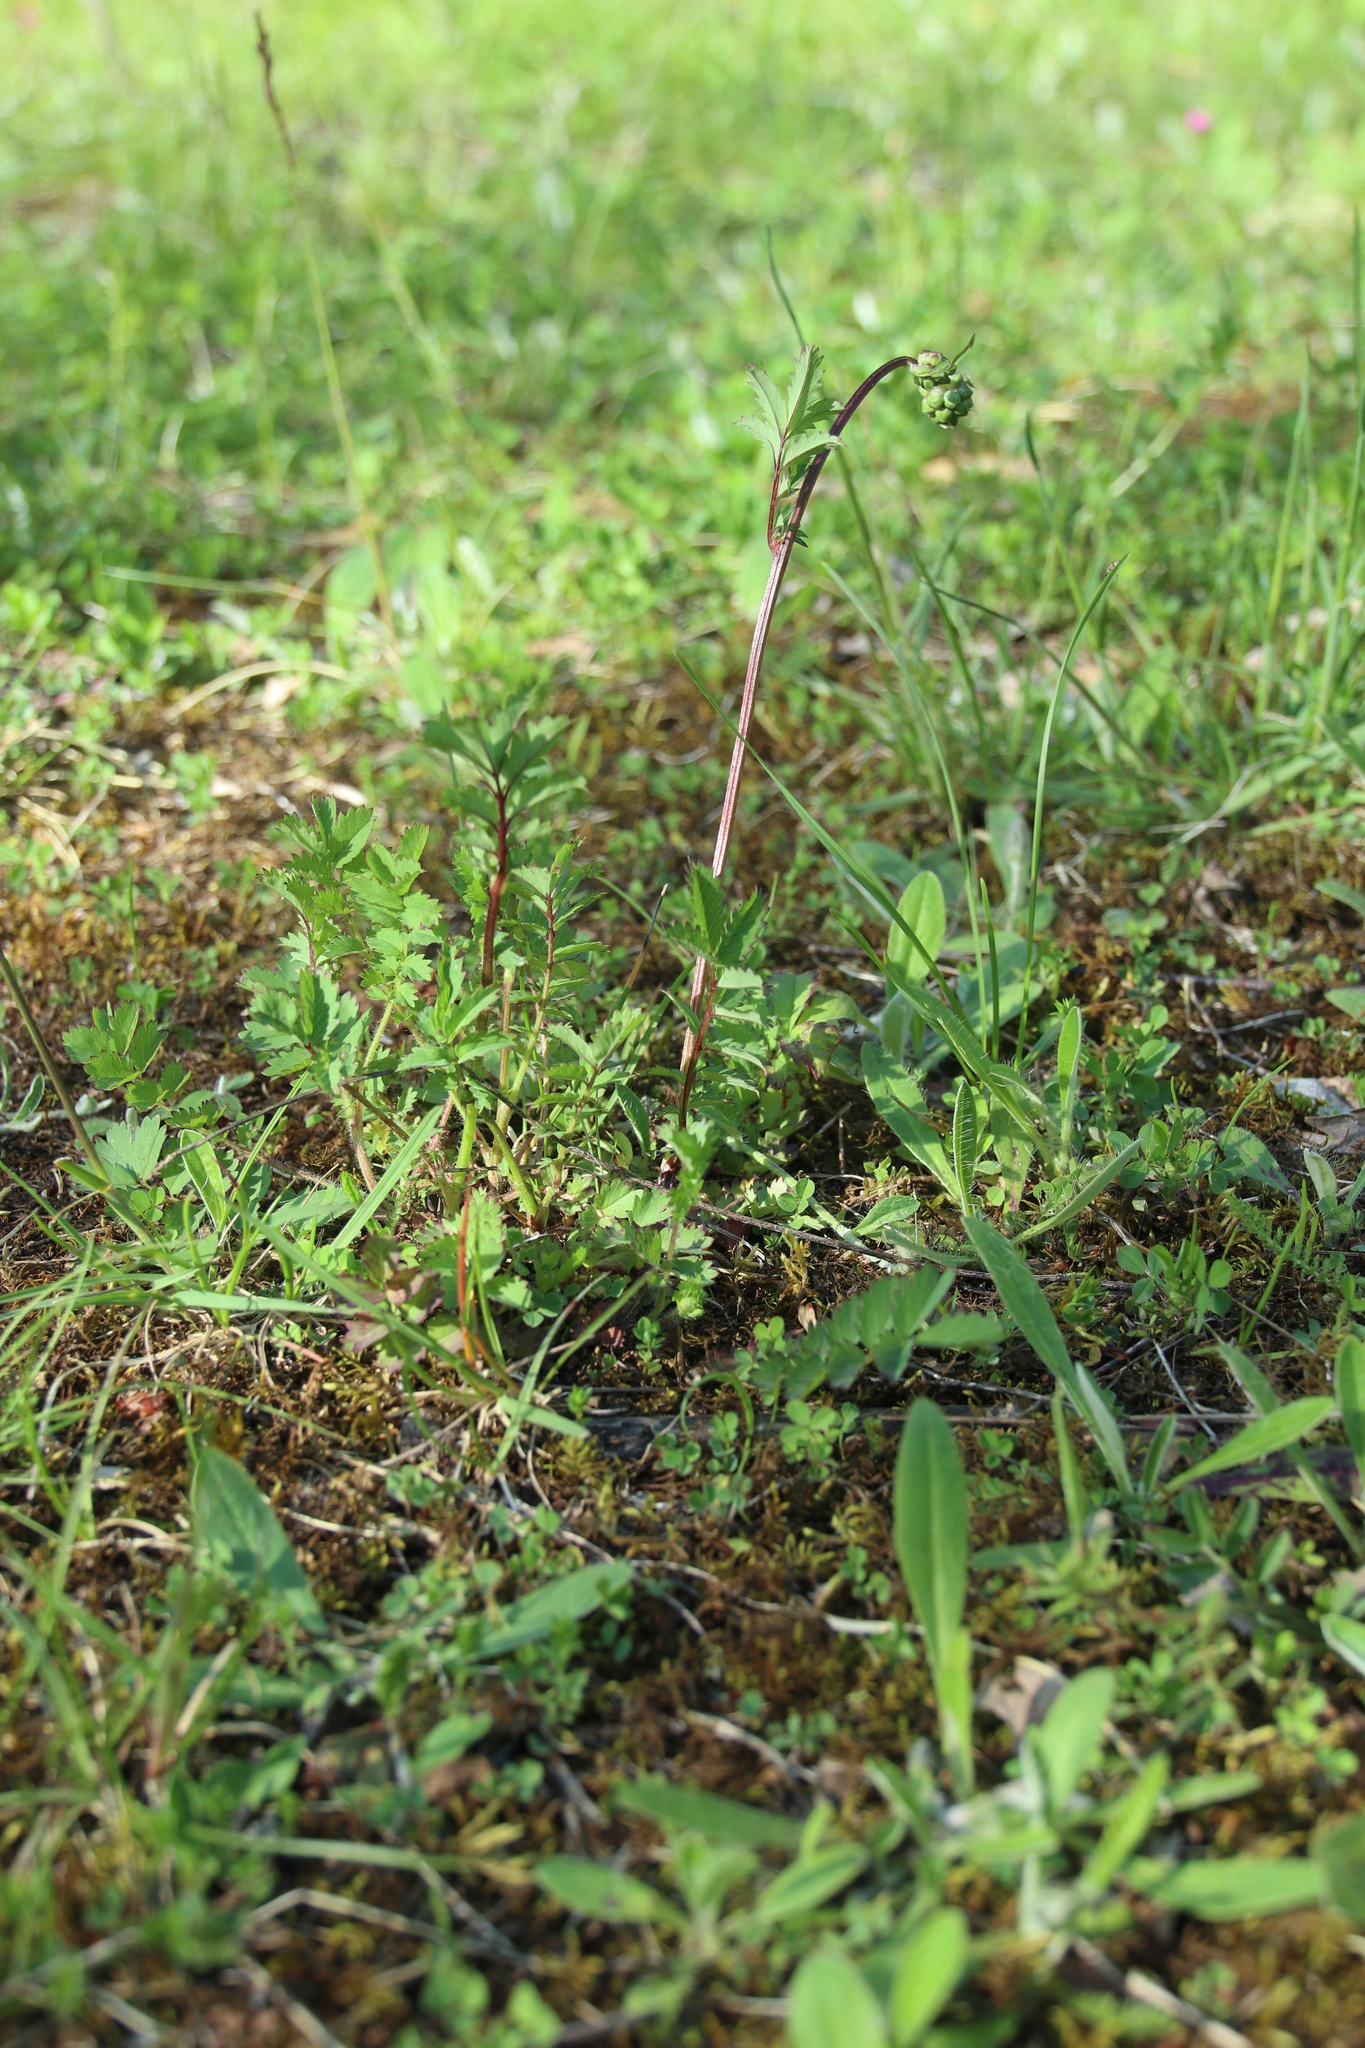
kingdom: Plantae
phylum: Tracheophyta
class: Magnoliopsida
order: Rosales
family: Rosaceae
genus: Poterium
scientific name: Poterium sanguisorba
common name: Salad burnet
